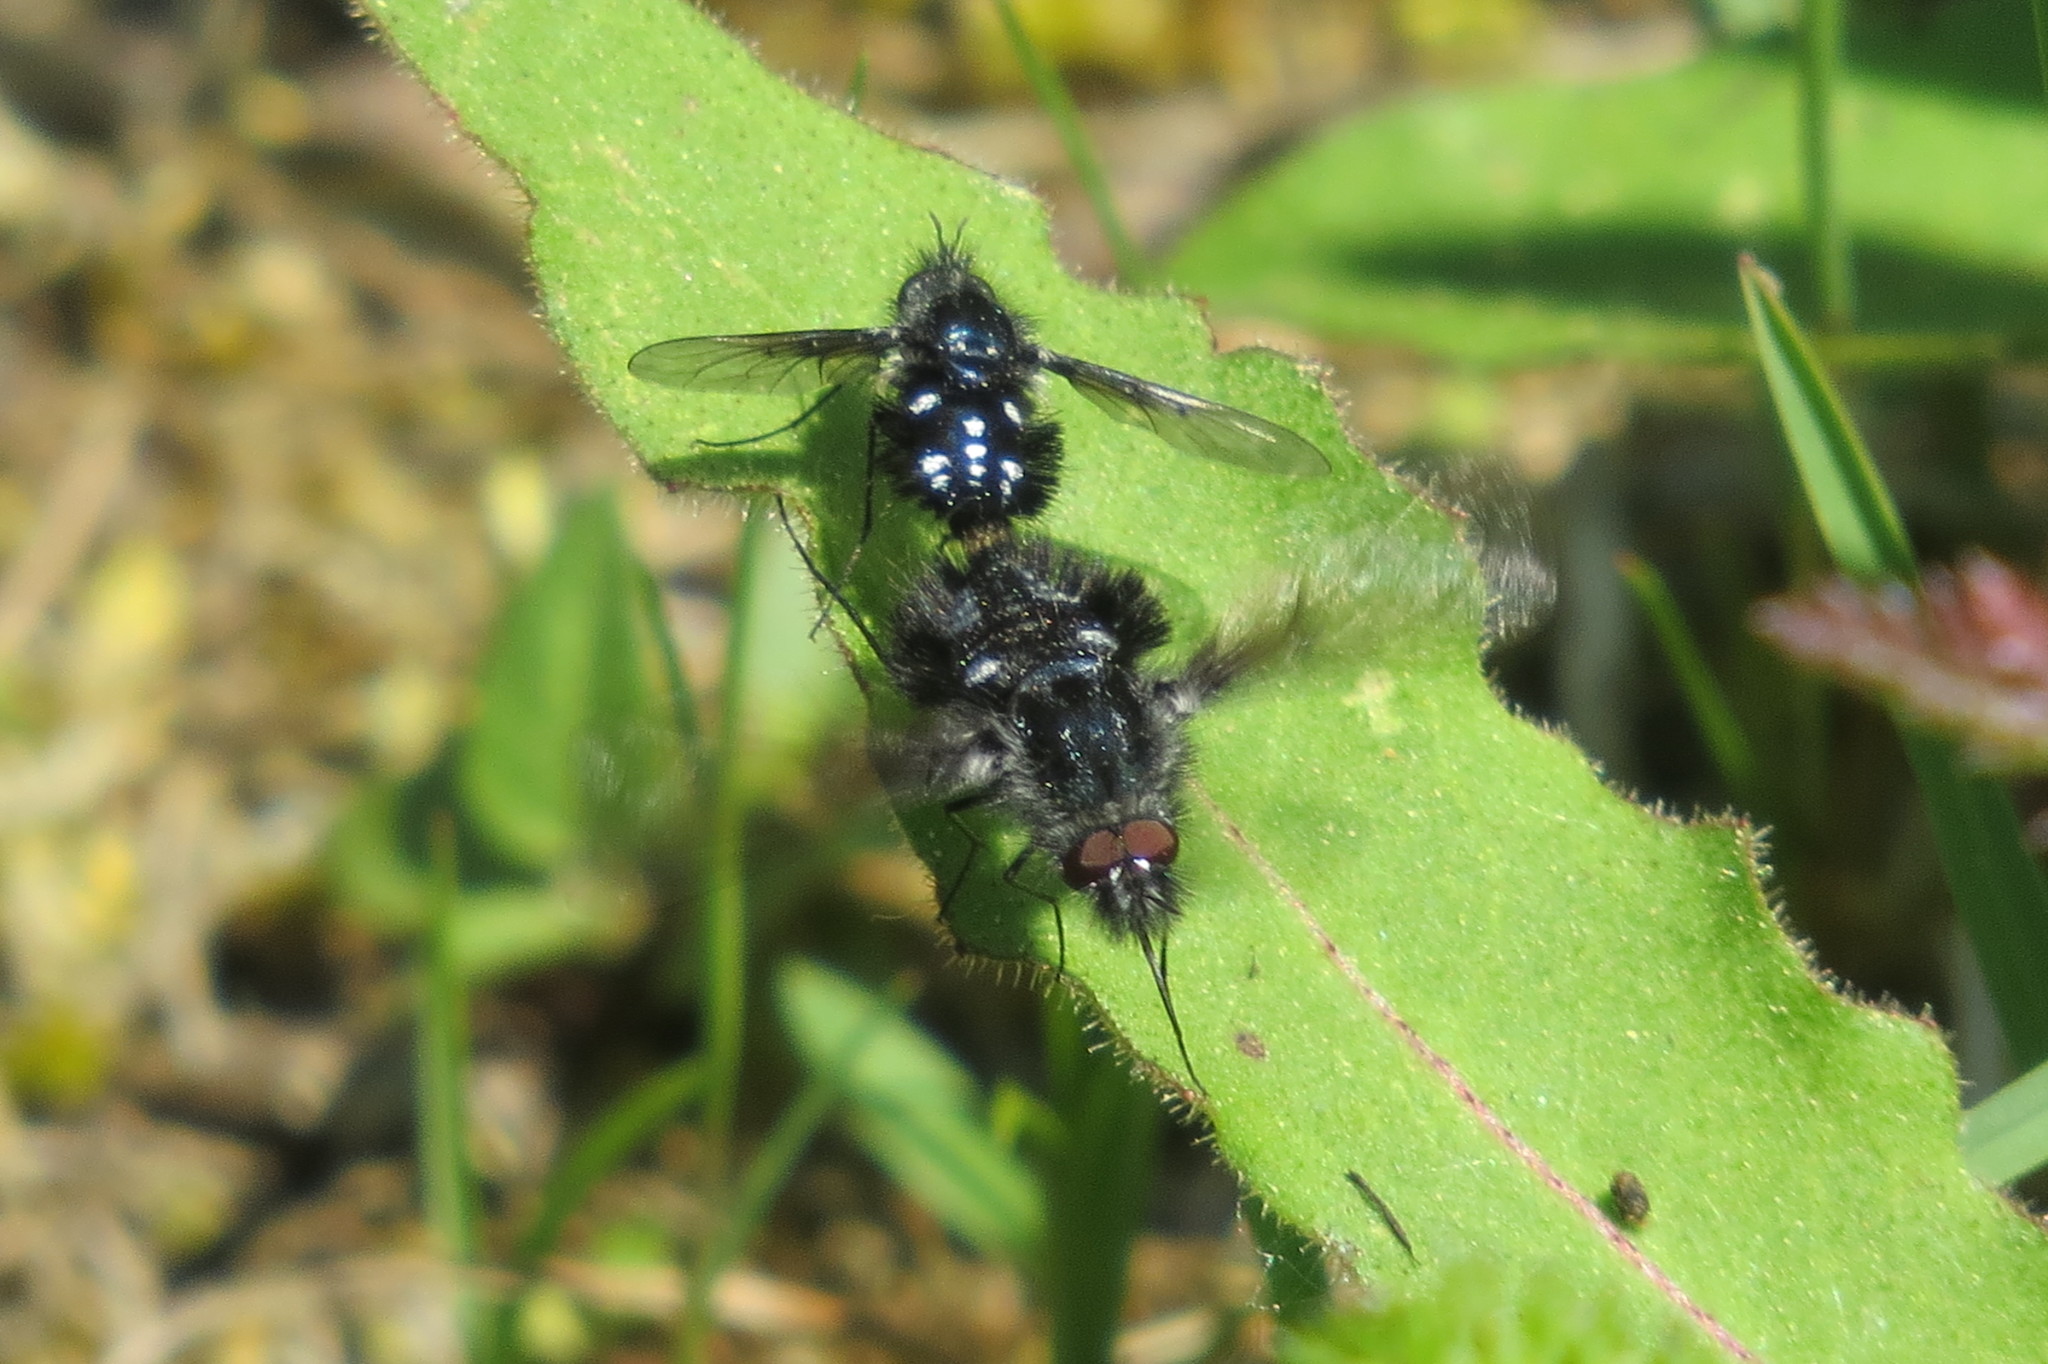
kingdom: Animalia
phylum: Arthropoda
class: Insecta
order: Diptera
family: Bombyliidae
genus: Bombylella
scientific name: Bombylella atra
